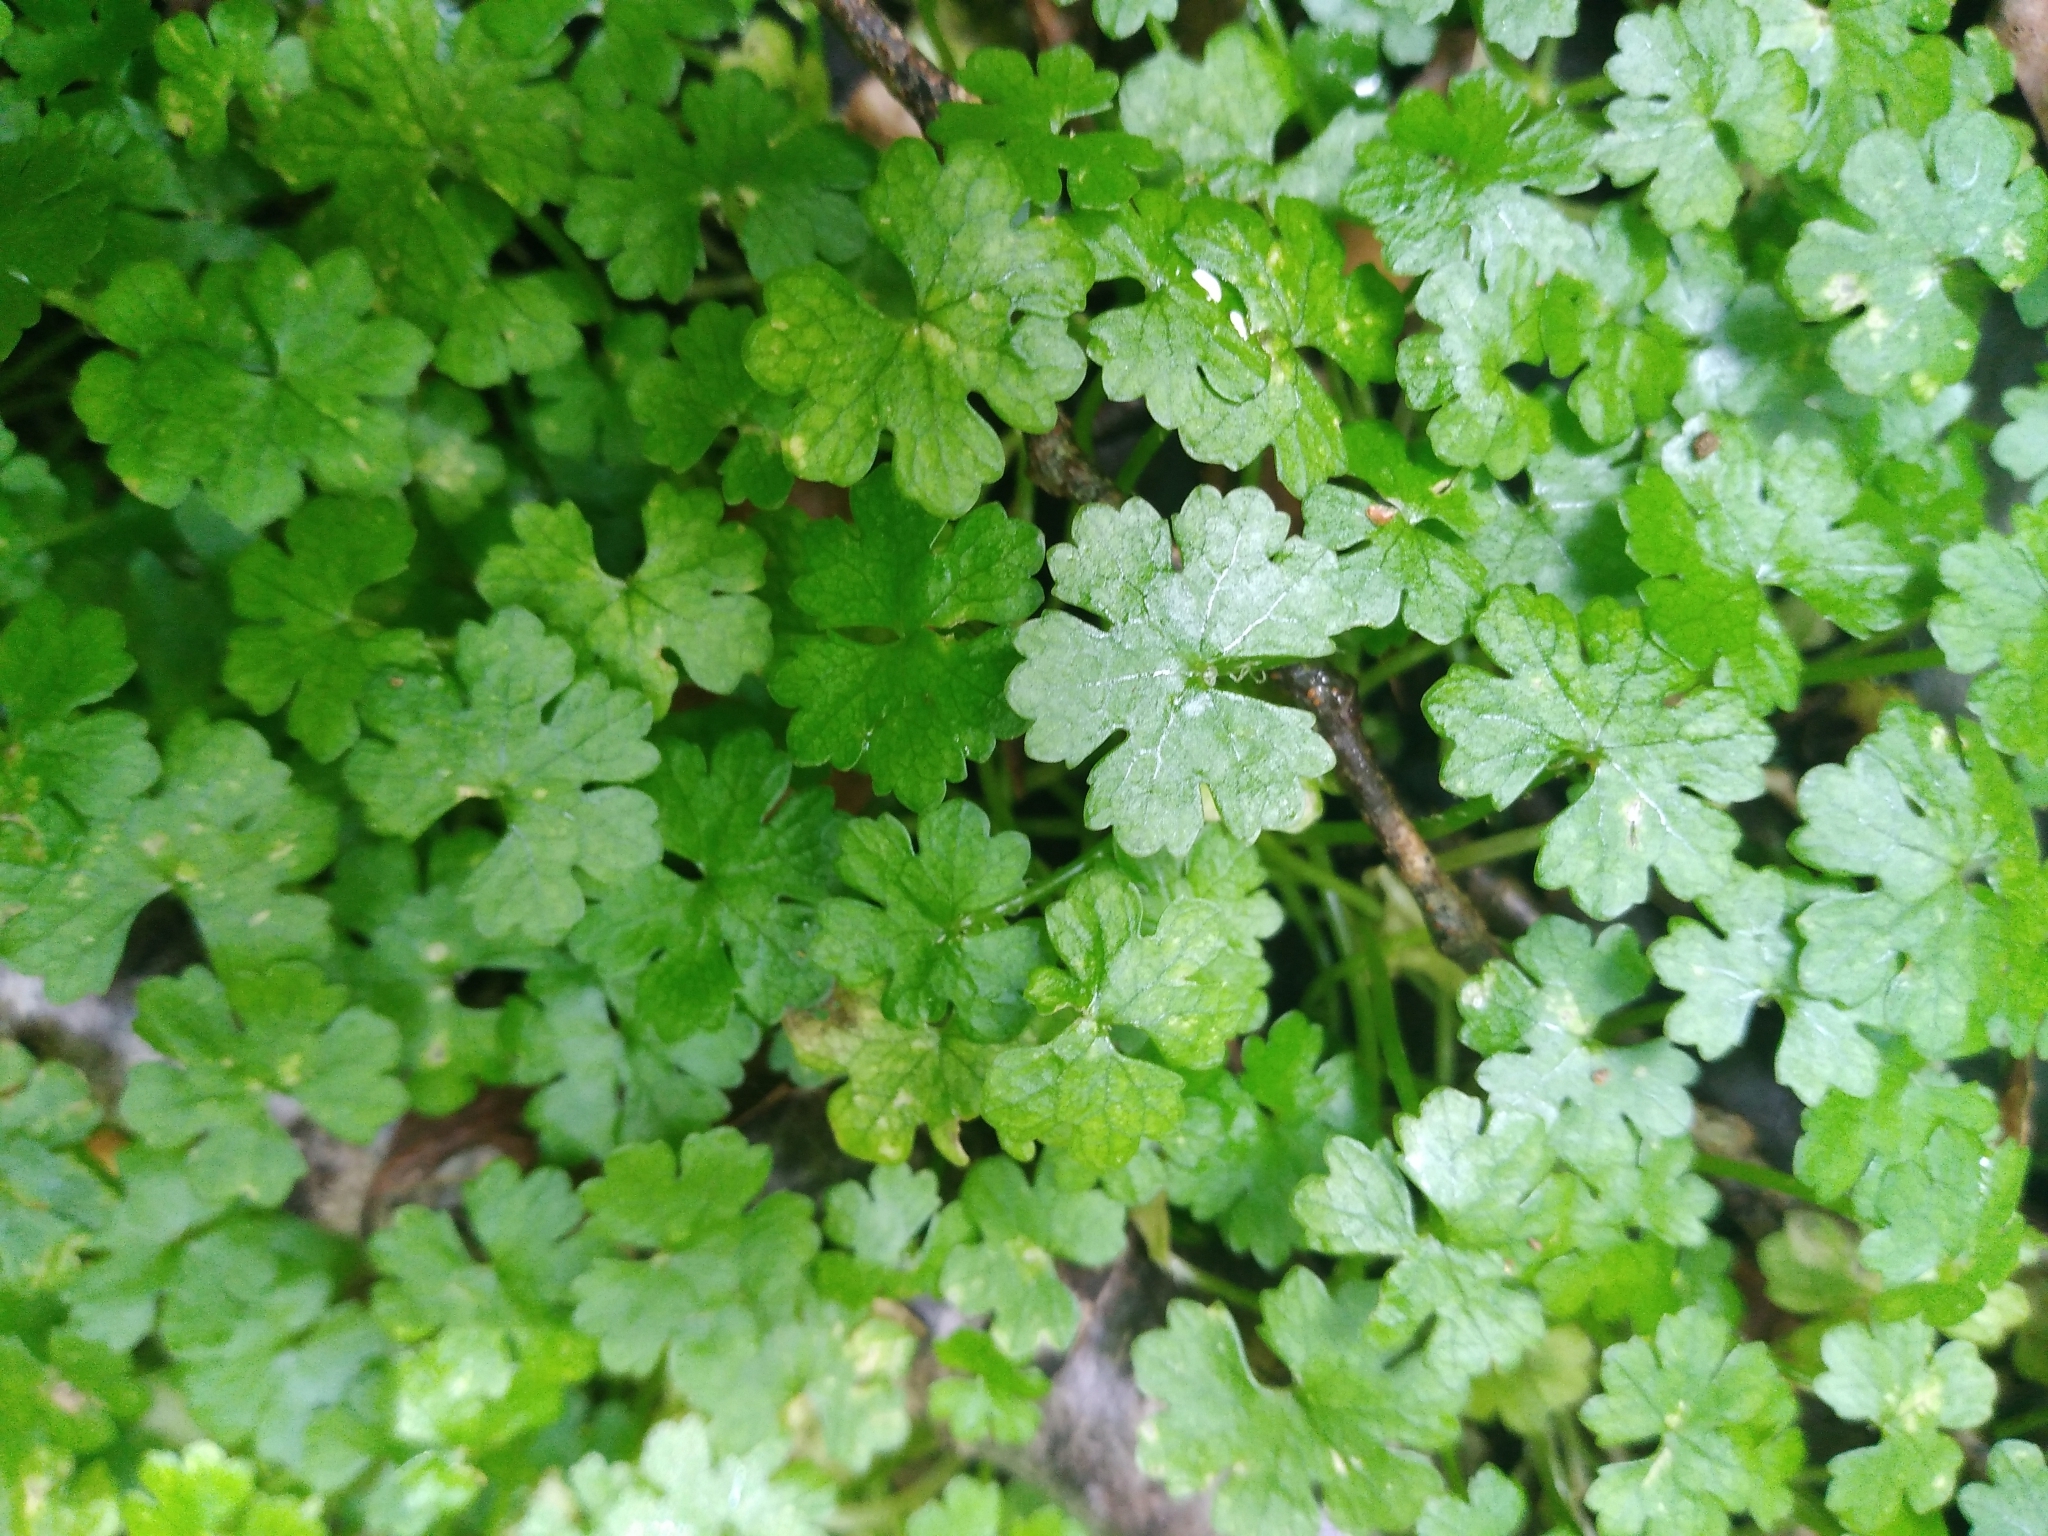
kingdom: Plantae
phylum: Tracheophyta
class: Magnoliopsida
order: Apiales
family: Araliaceae
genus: Hydrocotyle
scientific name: Hydrocotyle heteromeria
